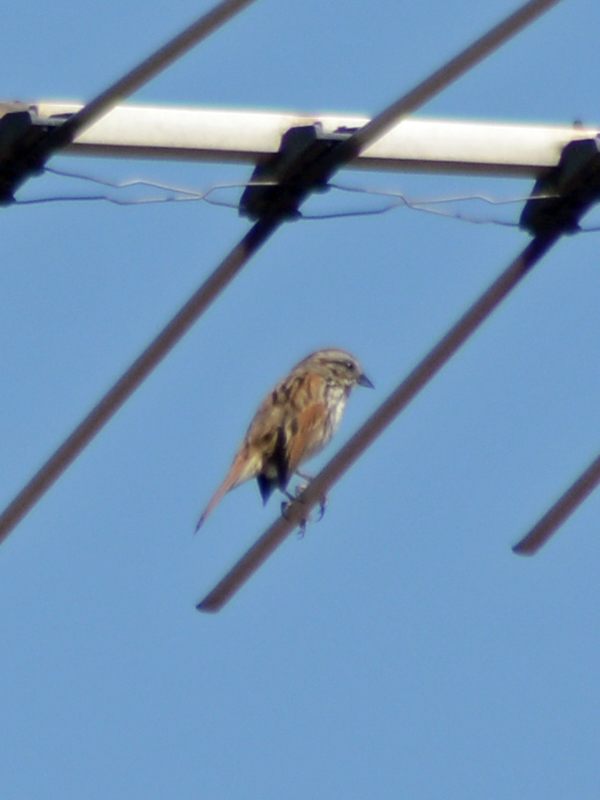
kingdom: Animalia
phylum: Chordata
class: Aves
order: Passeriformes
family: Passerellidae
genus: Melospiza
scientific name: Melospiza melodia
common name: Song sparrow
